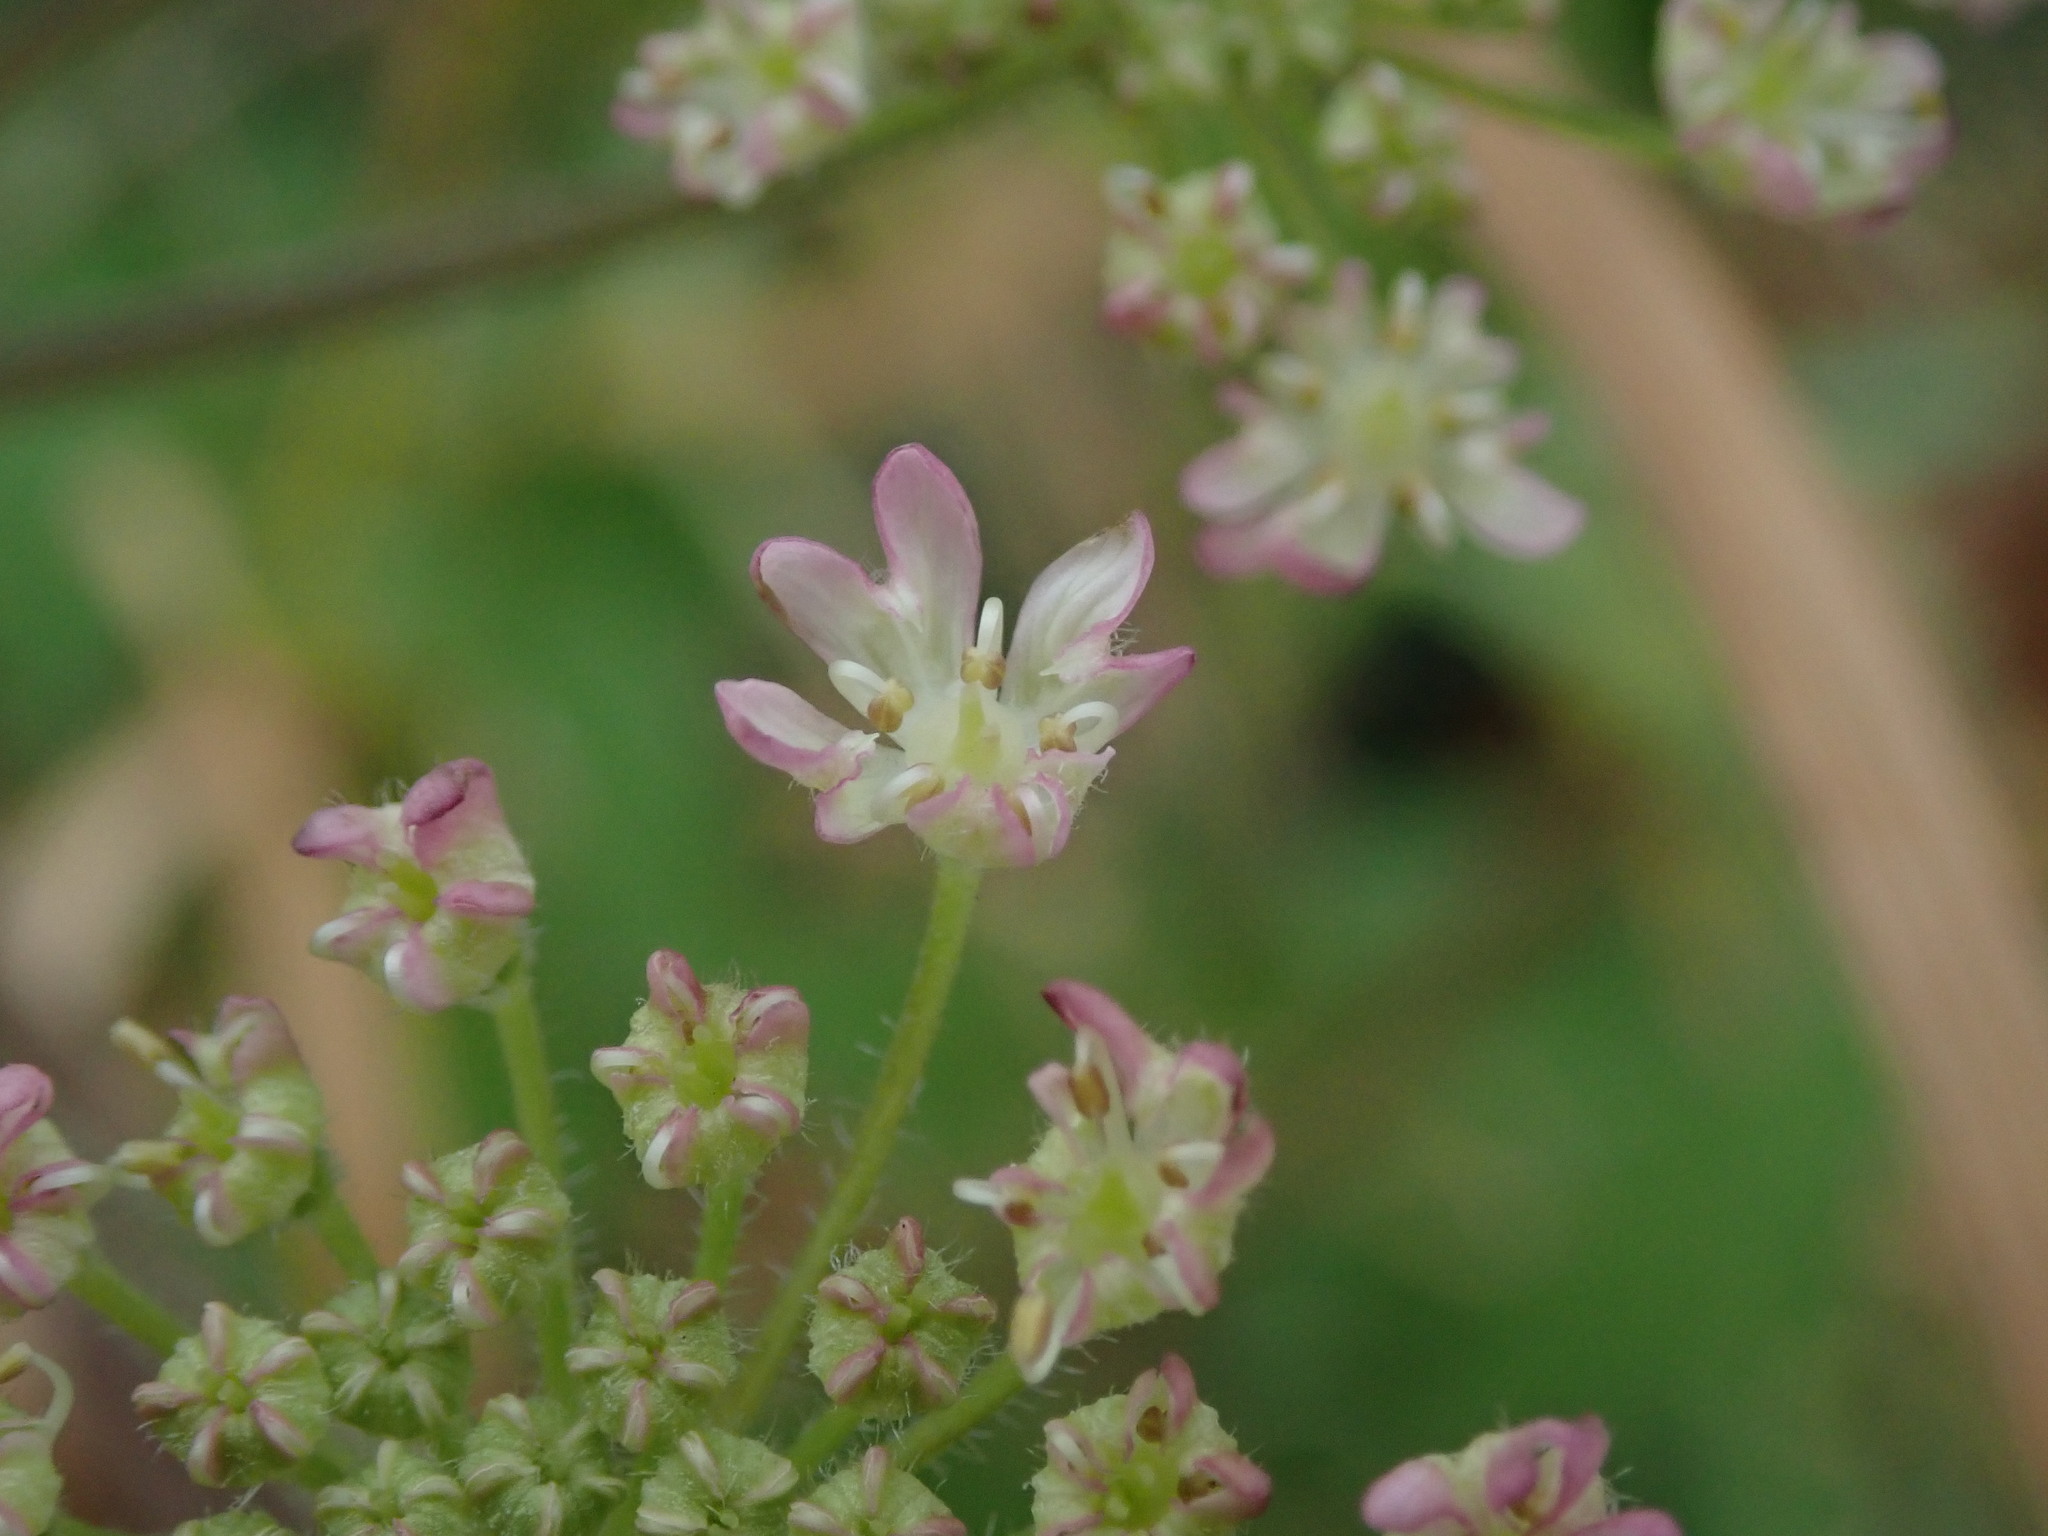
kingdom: Plantae
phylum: Tracheophyta
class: Magnoliopsida
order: Apiales
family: Apiaceae
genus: Heracleum
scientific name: Heracleum sphondylium
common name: Hogweed
